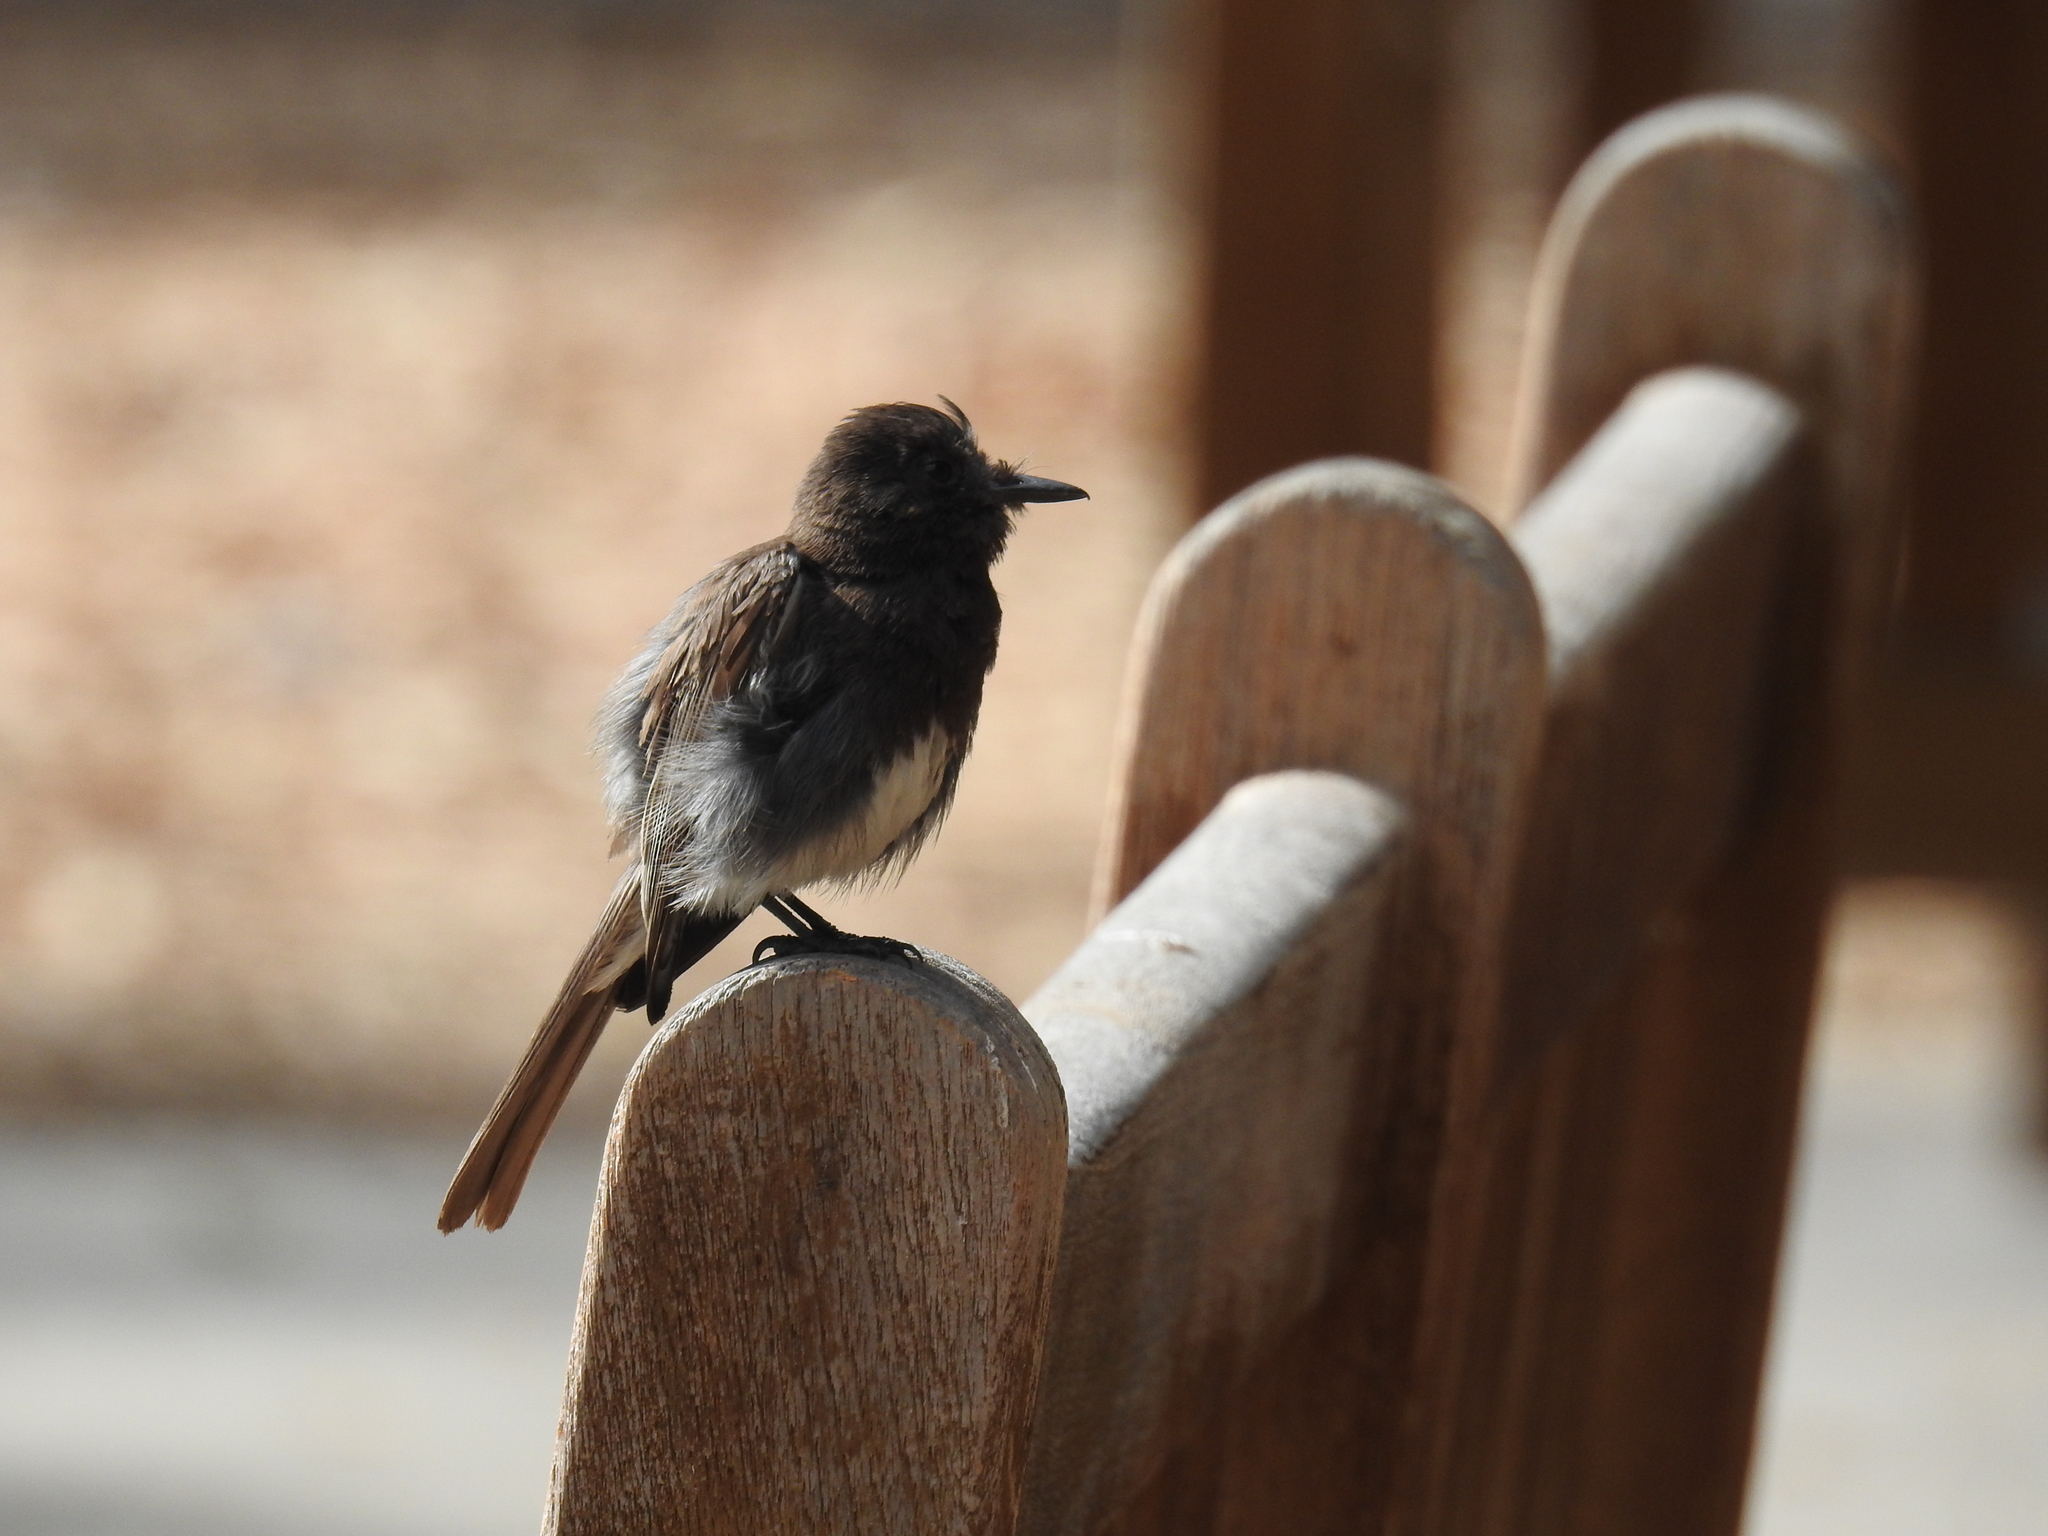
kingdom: Animalia
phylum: Chordata
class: Aves
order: Passeriformes
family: Tyrannidae
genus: Sayornis
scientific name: Sayornis nigricans
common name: Black phoebe
